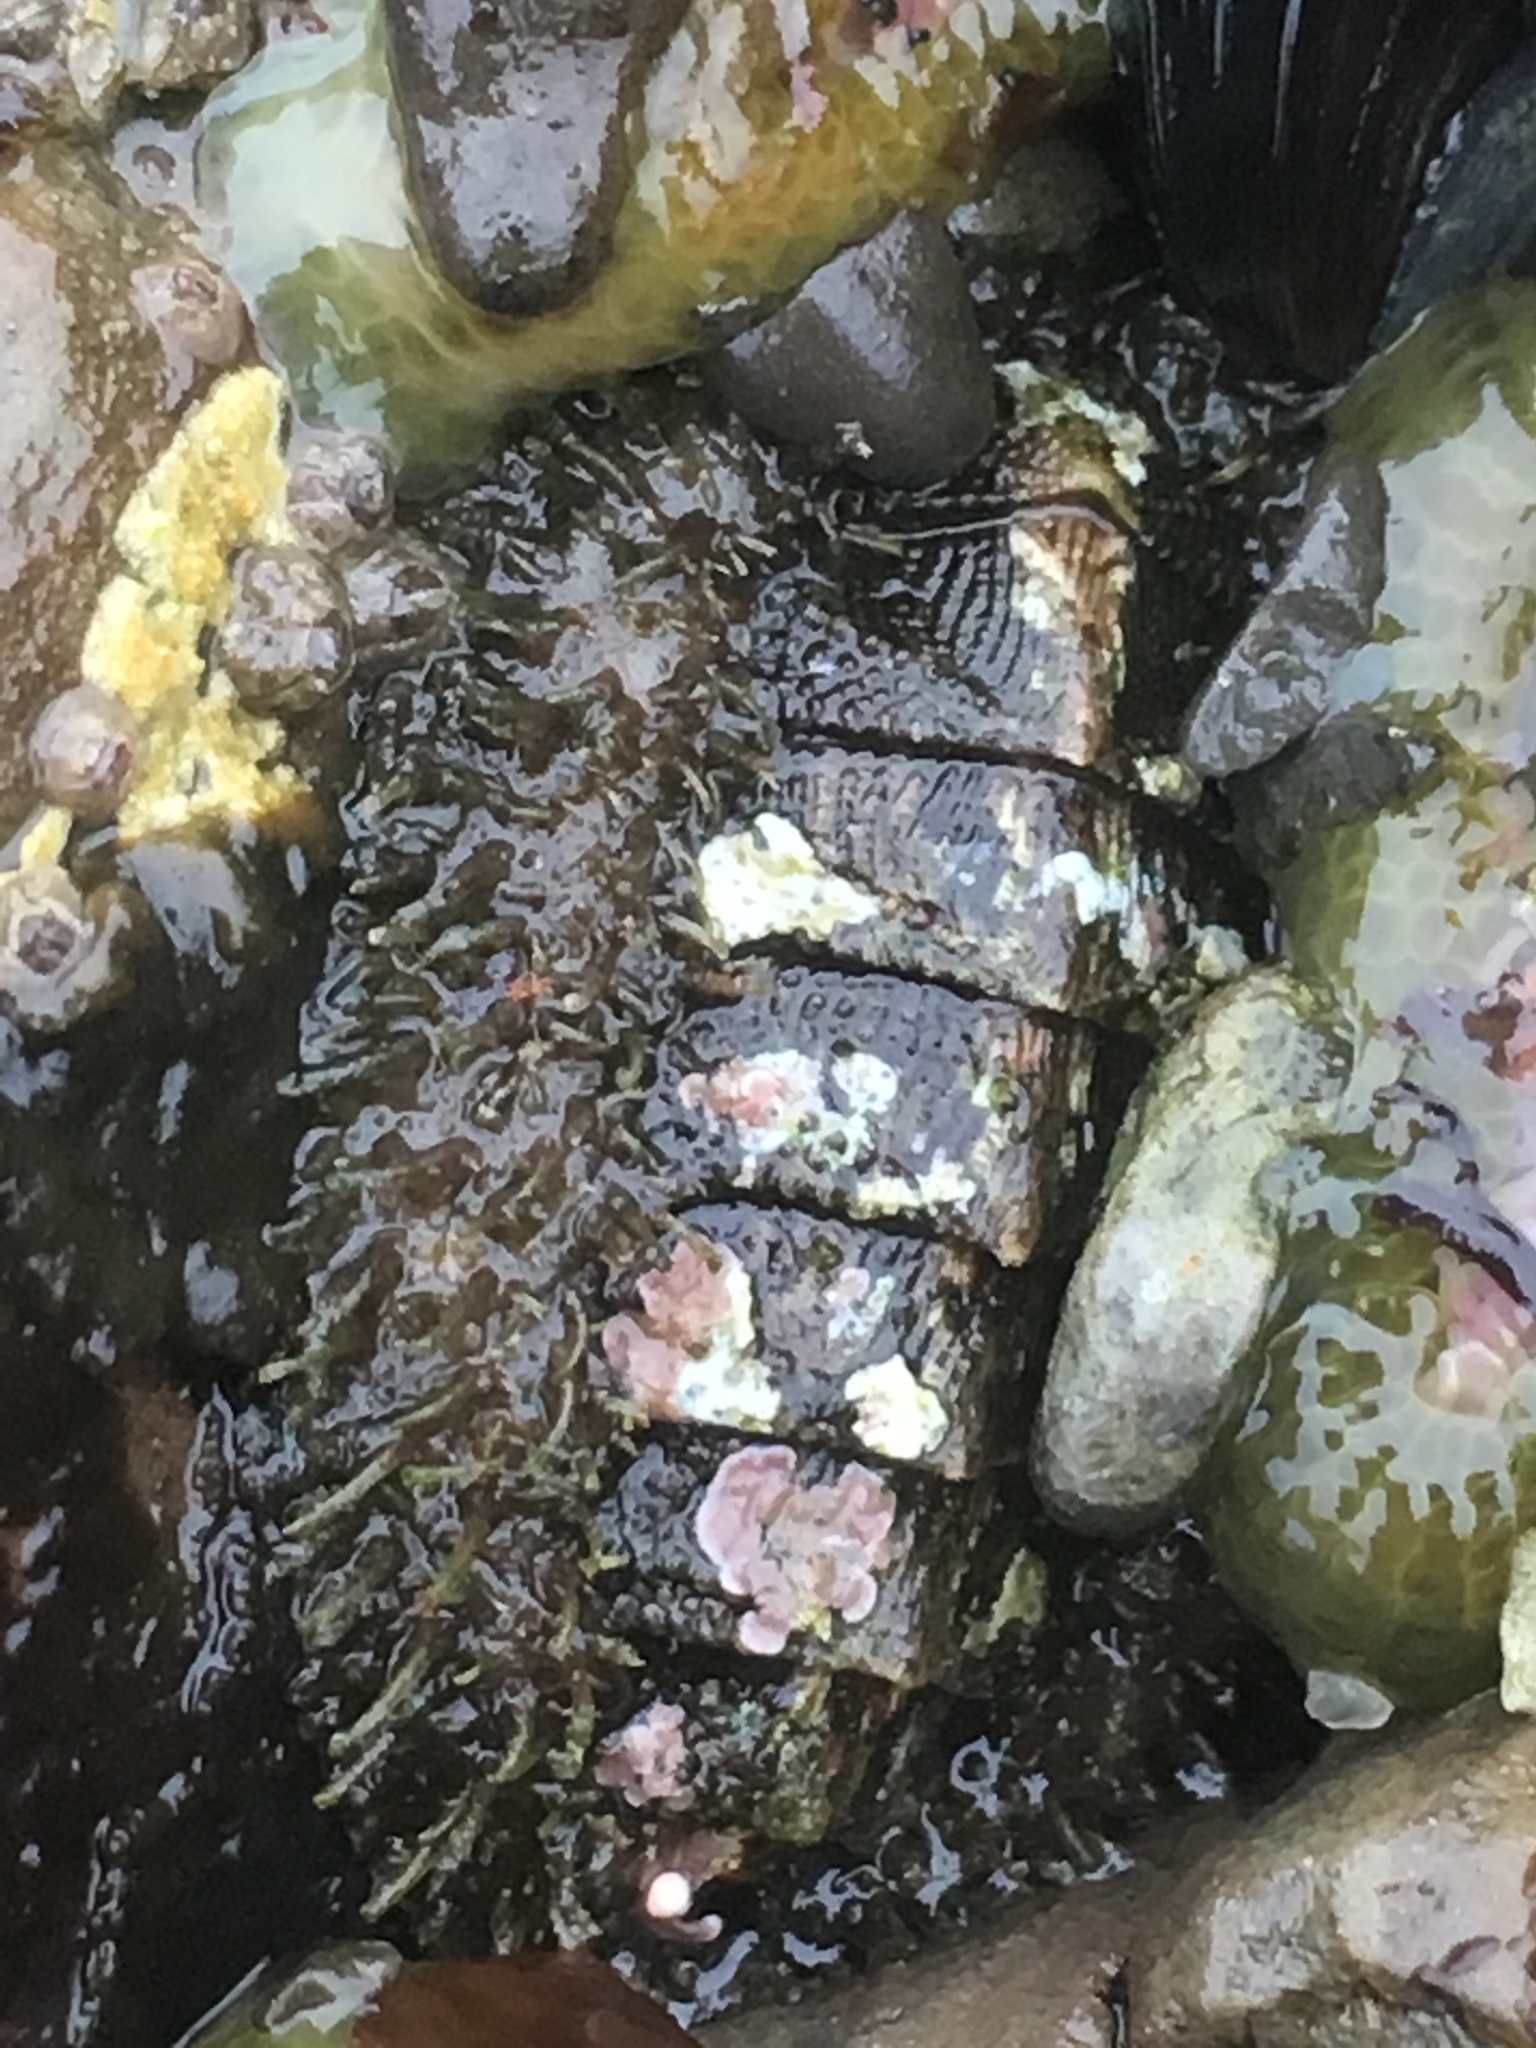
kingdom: Animalia
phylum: Mollusca
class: Polyplacophora
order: Chitonida
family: Mopaliidae
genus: Mopalia
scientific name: Mopalia muscosa
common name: Mossy chiton
